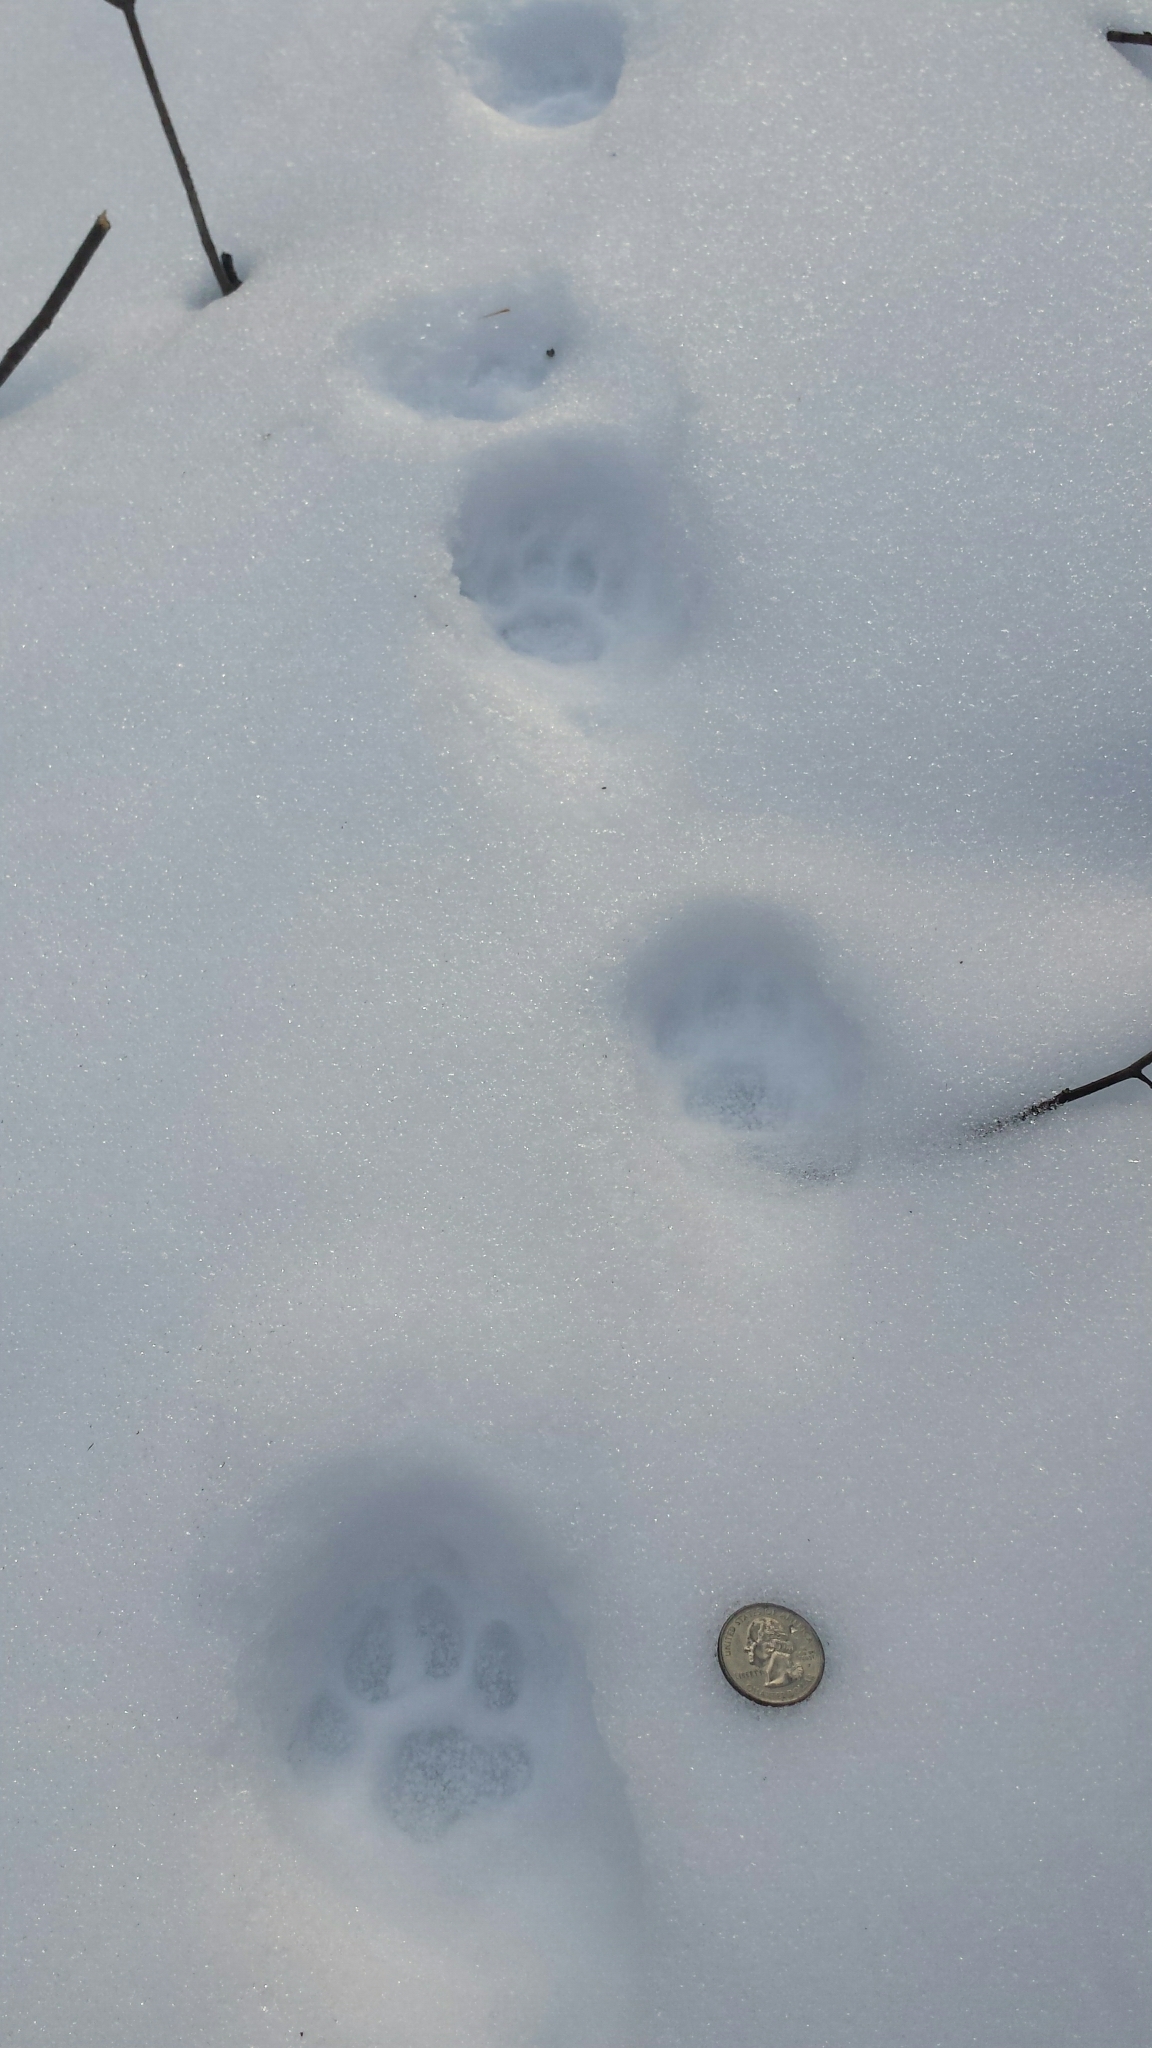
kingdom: Animalia
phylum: Chordata
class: Mammalia
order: Carnivora
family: Felidae
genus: Lynx
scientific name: Lynx rufus
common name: Bobcat
